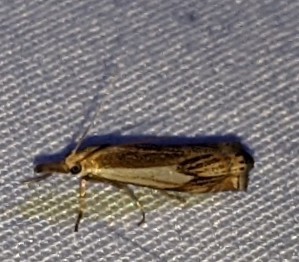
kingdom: Animalia
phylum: Arthropoda
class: Insecta
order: Lepidoptera
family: Crambidae
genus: Crambus
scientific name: Crambus agitatellus
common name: Double-banded grass-veneer
